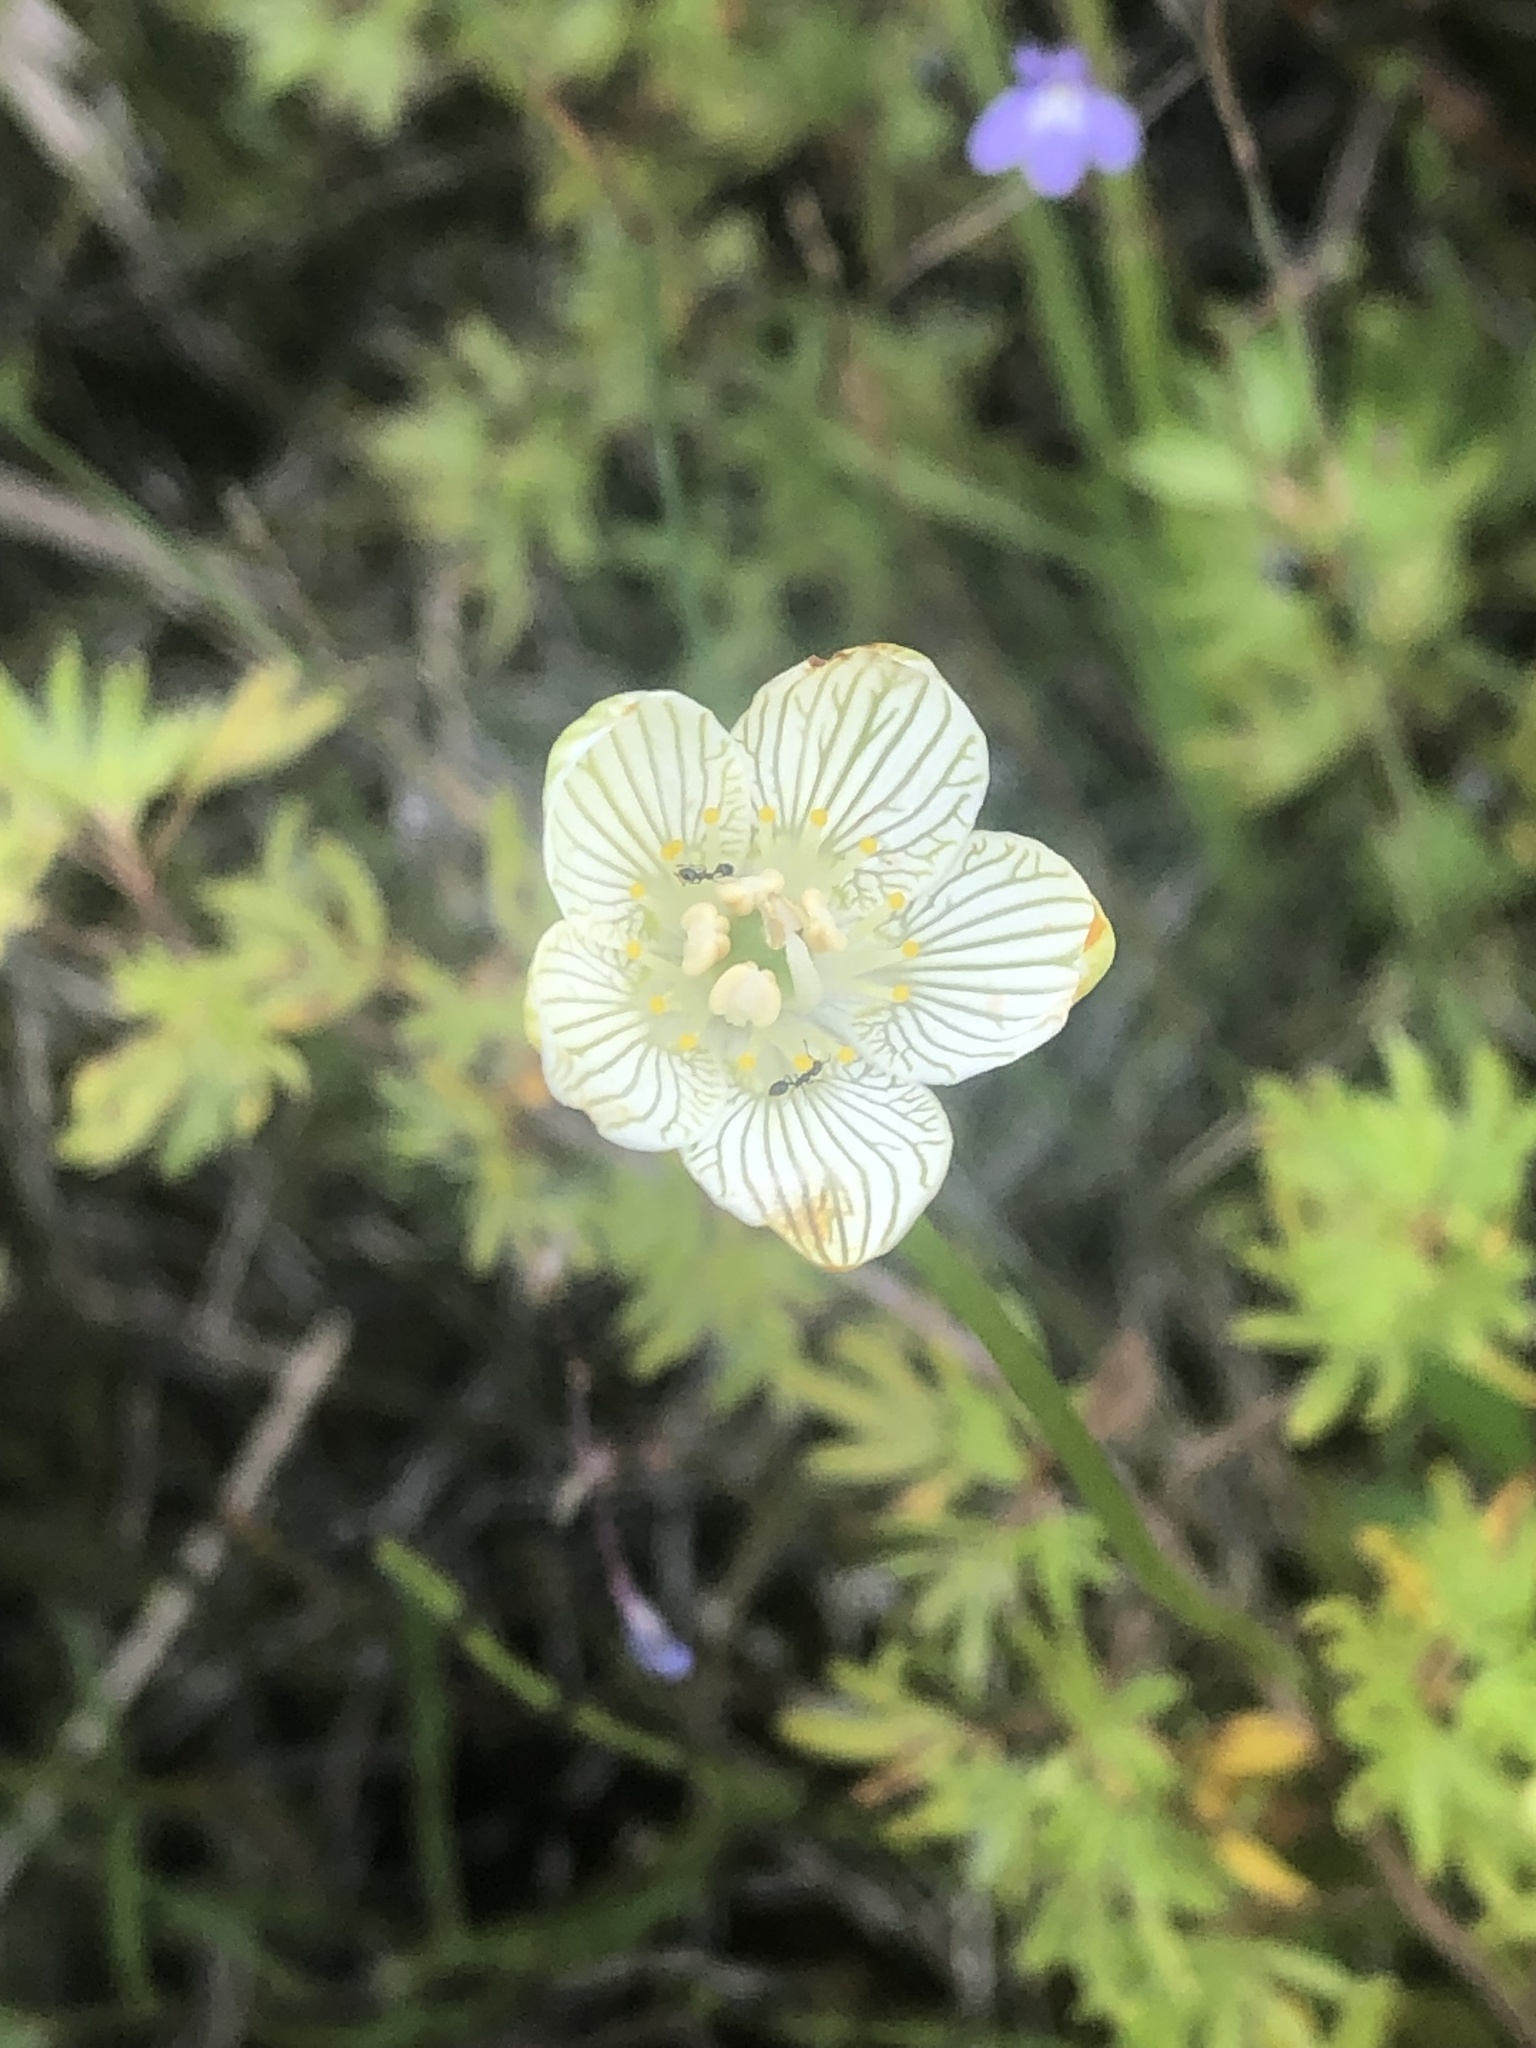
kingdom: Plantae
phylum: Tracheophyta
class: Magnoliopsida
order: Celastrales
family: Parnassiaceae
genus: Parnassia
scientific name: Parnassia glauca
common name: American grass-of-parnassus
